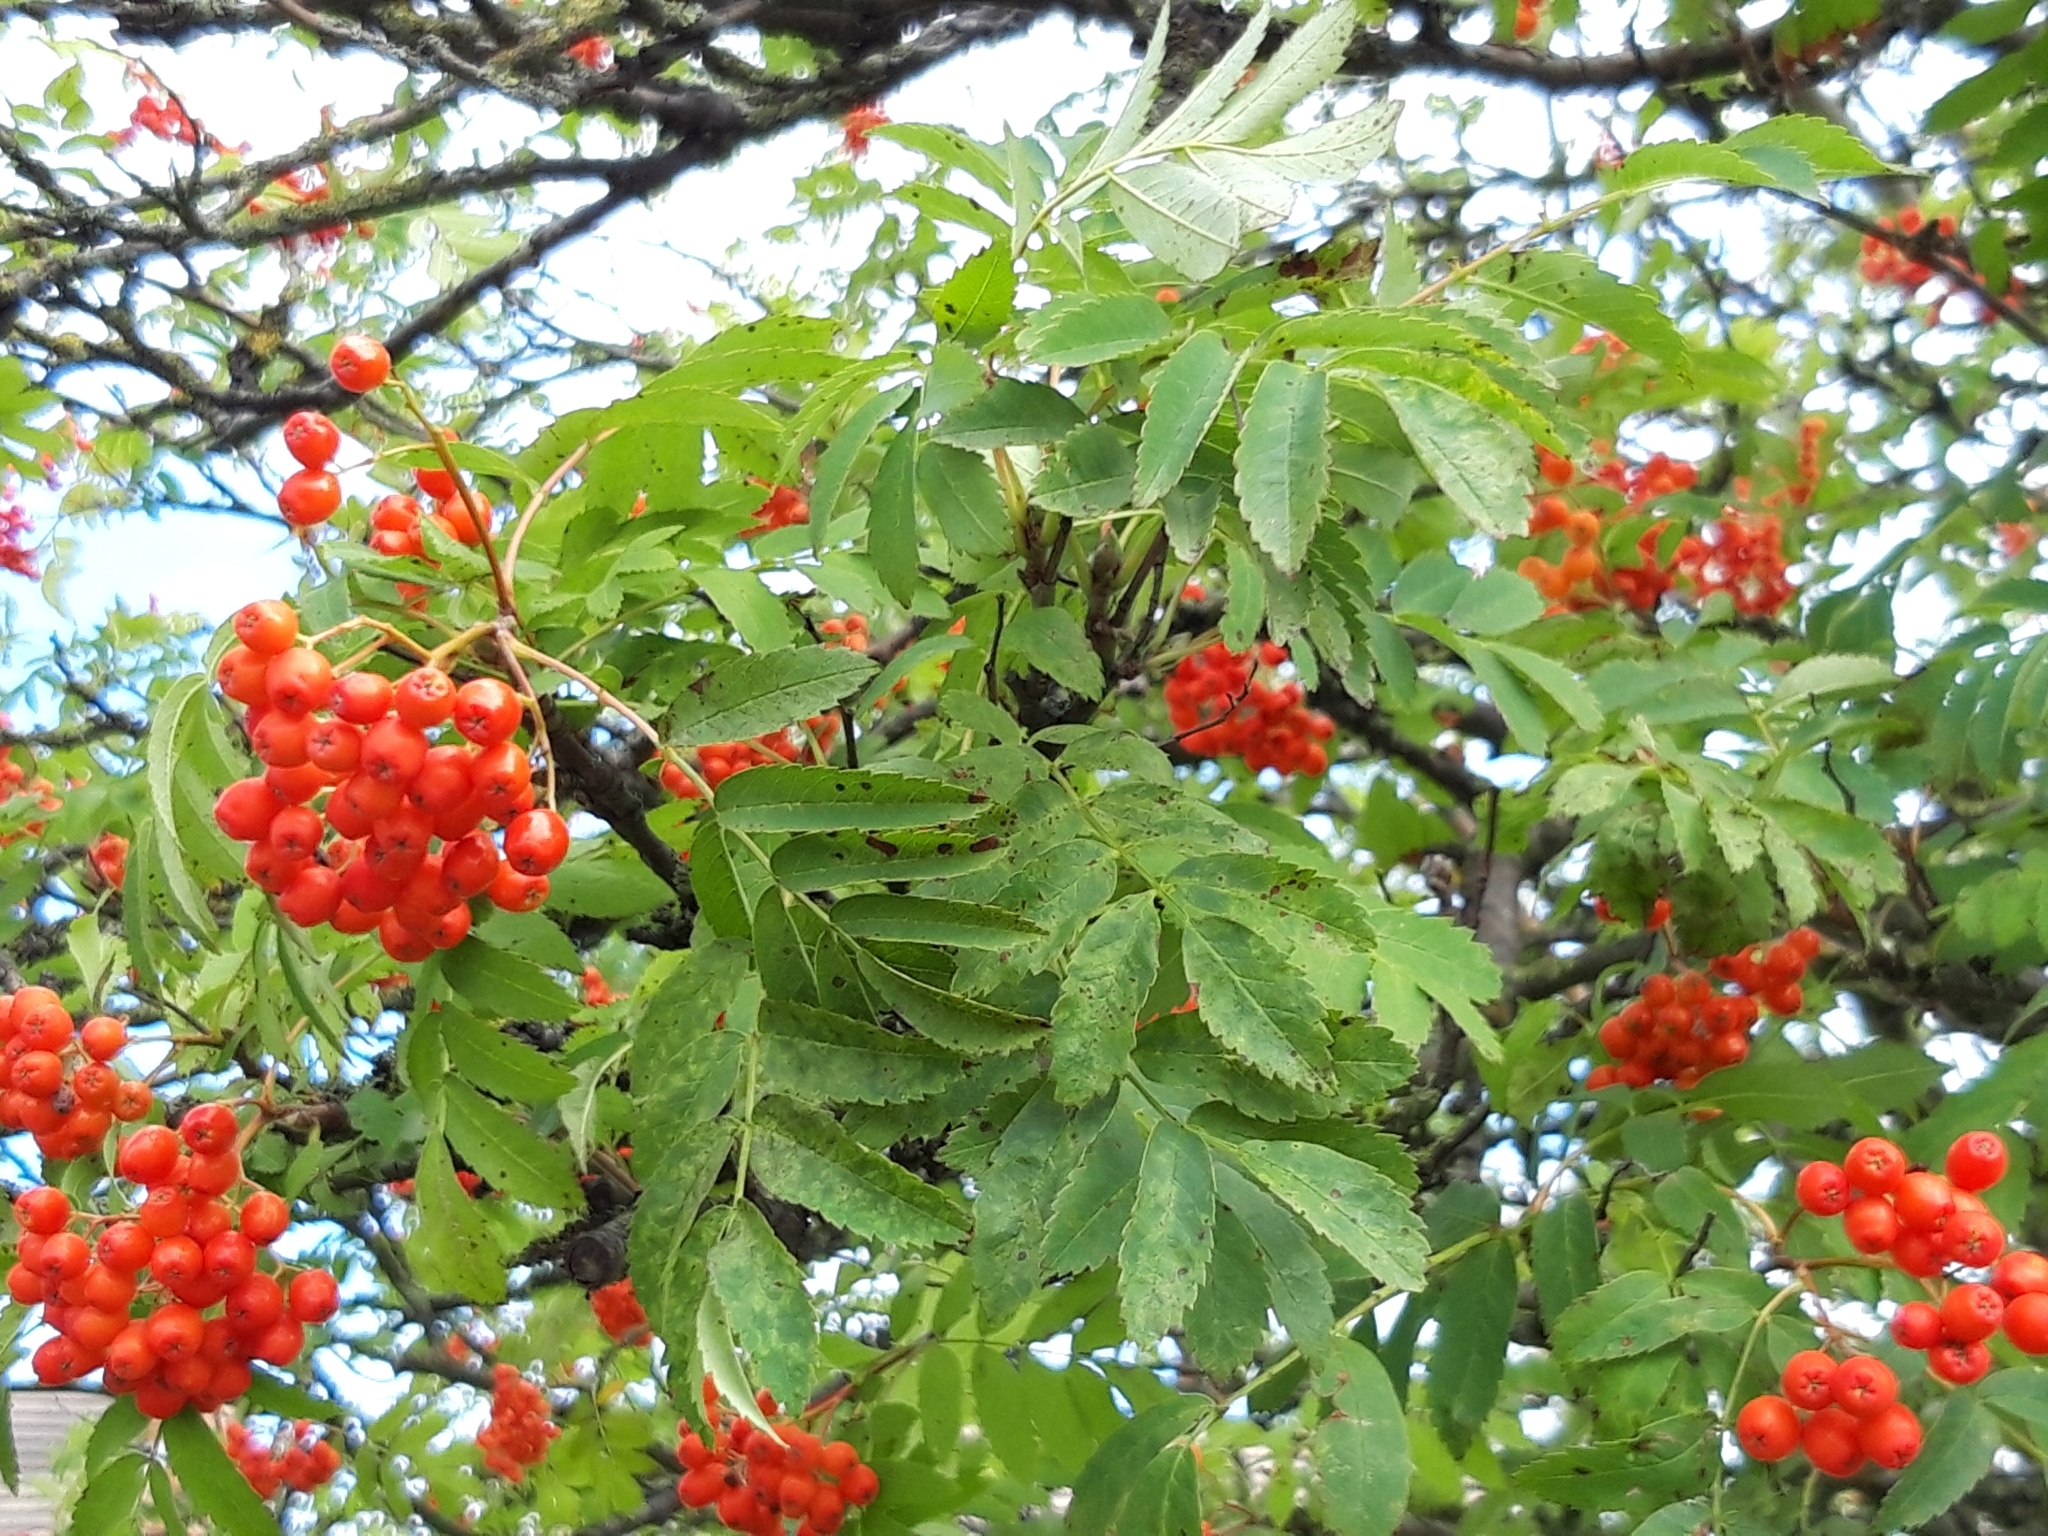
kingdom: Plantae
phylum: Tracheophyta
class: Magnoliopsida
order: Rosales
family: Rosaceae
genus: Sorbus
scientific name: Sorbus aucuparia
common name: Rowan
